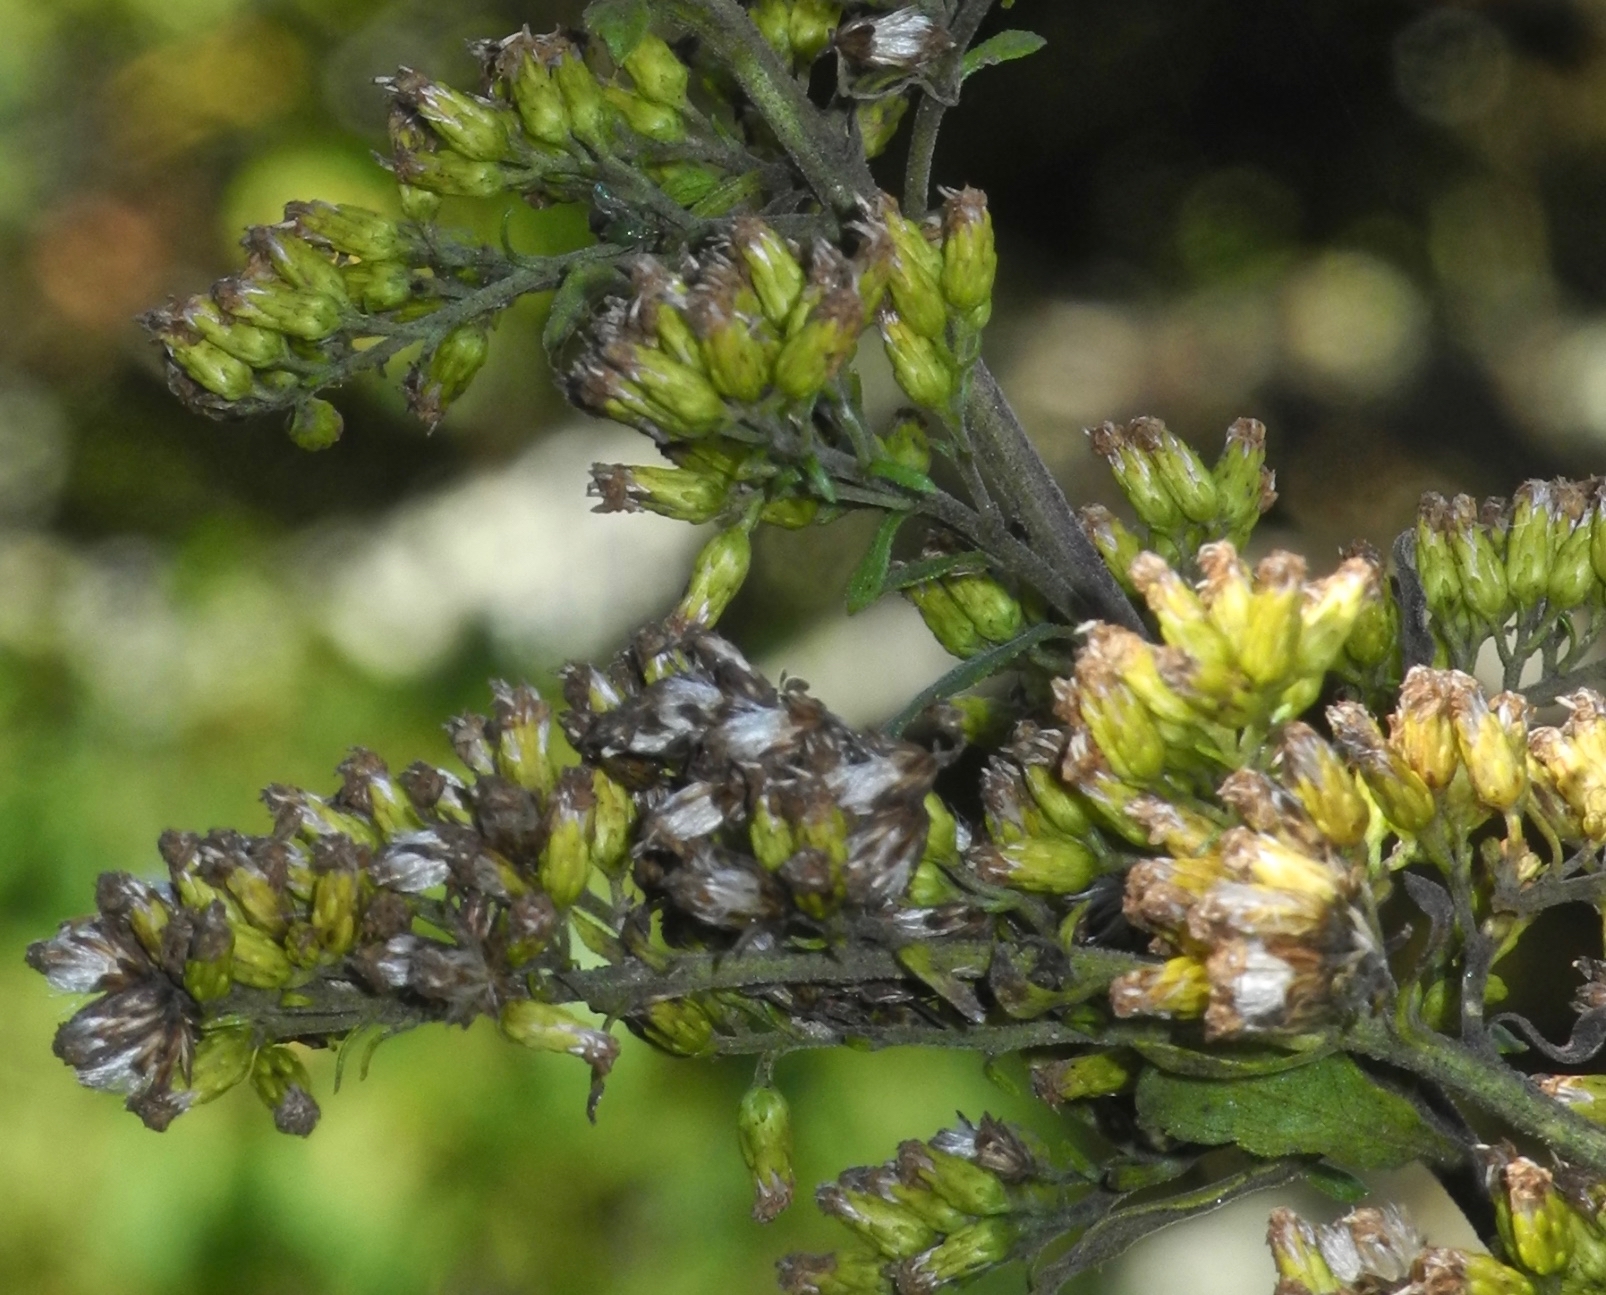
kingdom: Plantae
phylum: Tracheophyta
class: Magnoliopsida
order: Asterales
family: Asteraceae
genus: Solidago
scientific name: Solidago nemoralis
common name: Grey goldenrod
